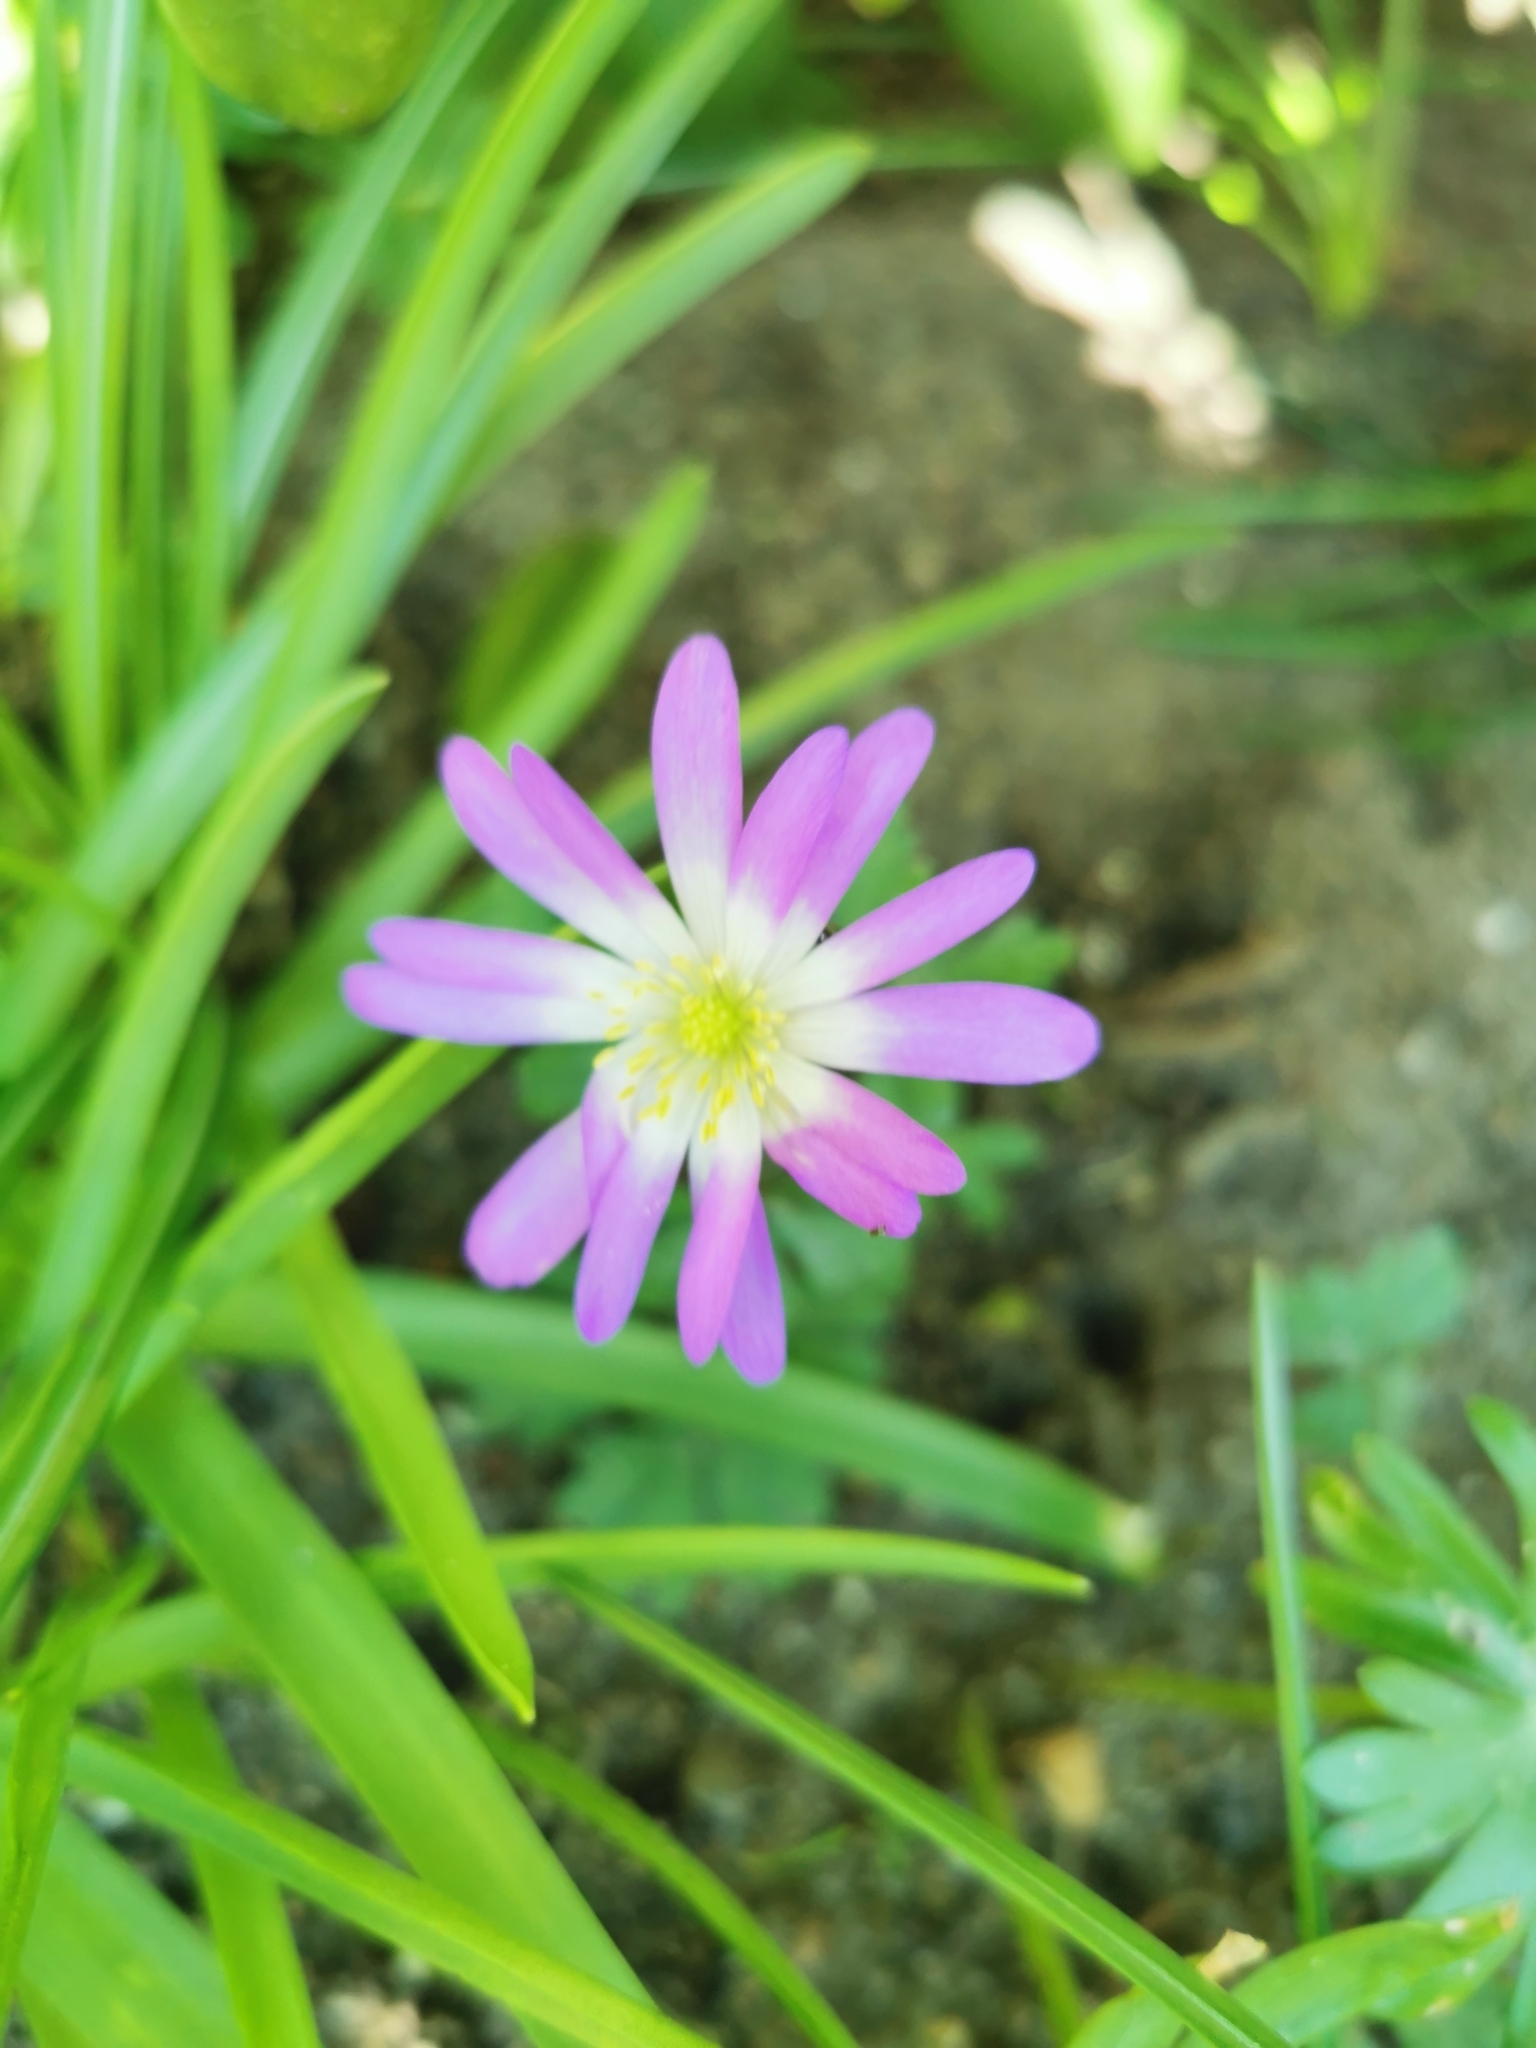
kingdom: Plantae
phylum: Tracheophyta
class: Magnoliopsida
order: Ranunculales
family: Ranunculaceae
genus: Anemone
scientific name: Anemone blanda
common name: Balkan anemone
